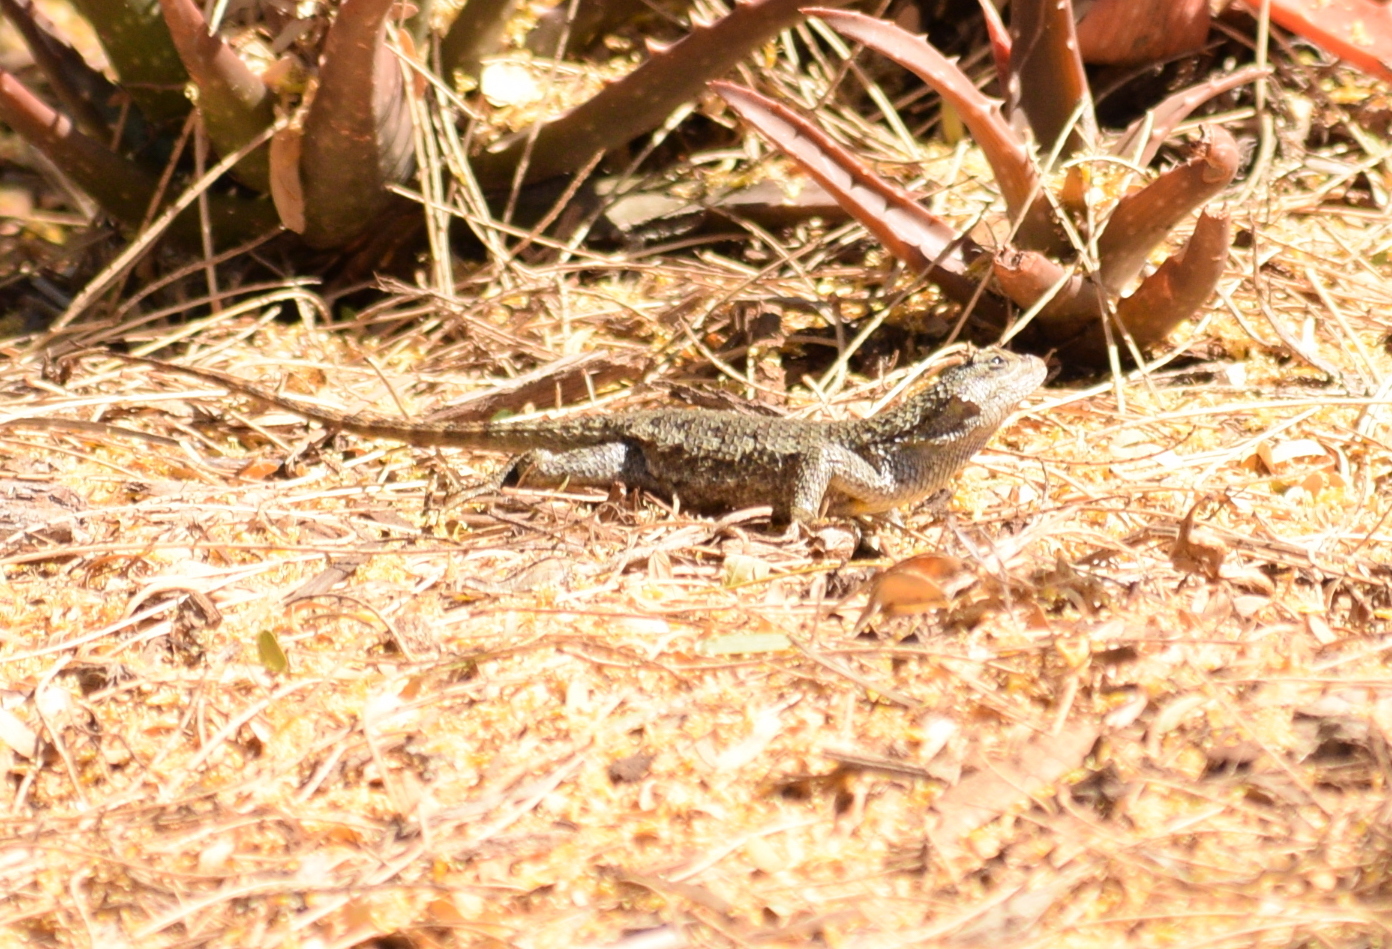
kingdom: Animalia
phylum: Chordata
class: Squamata
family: Phrynosomatidae
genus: Sceloporus
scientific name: Sceloporus occidentalis
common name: Western fence lizard
